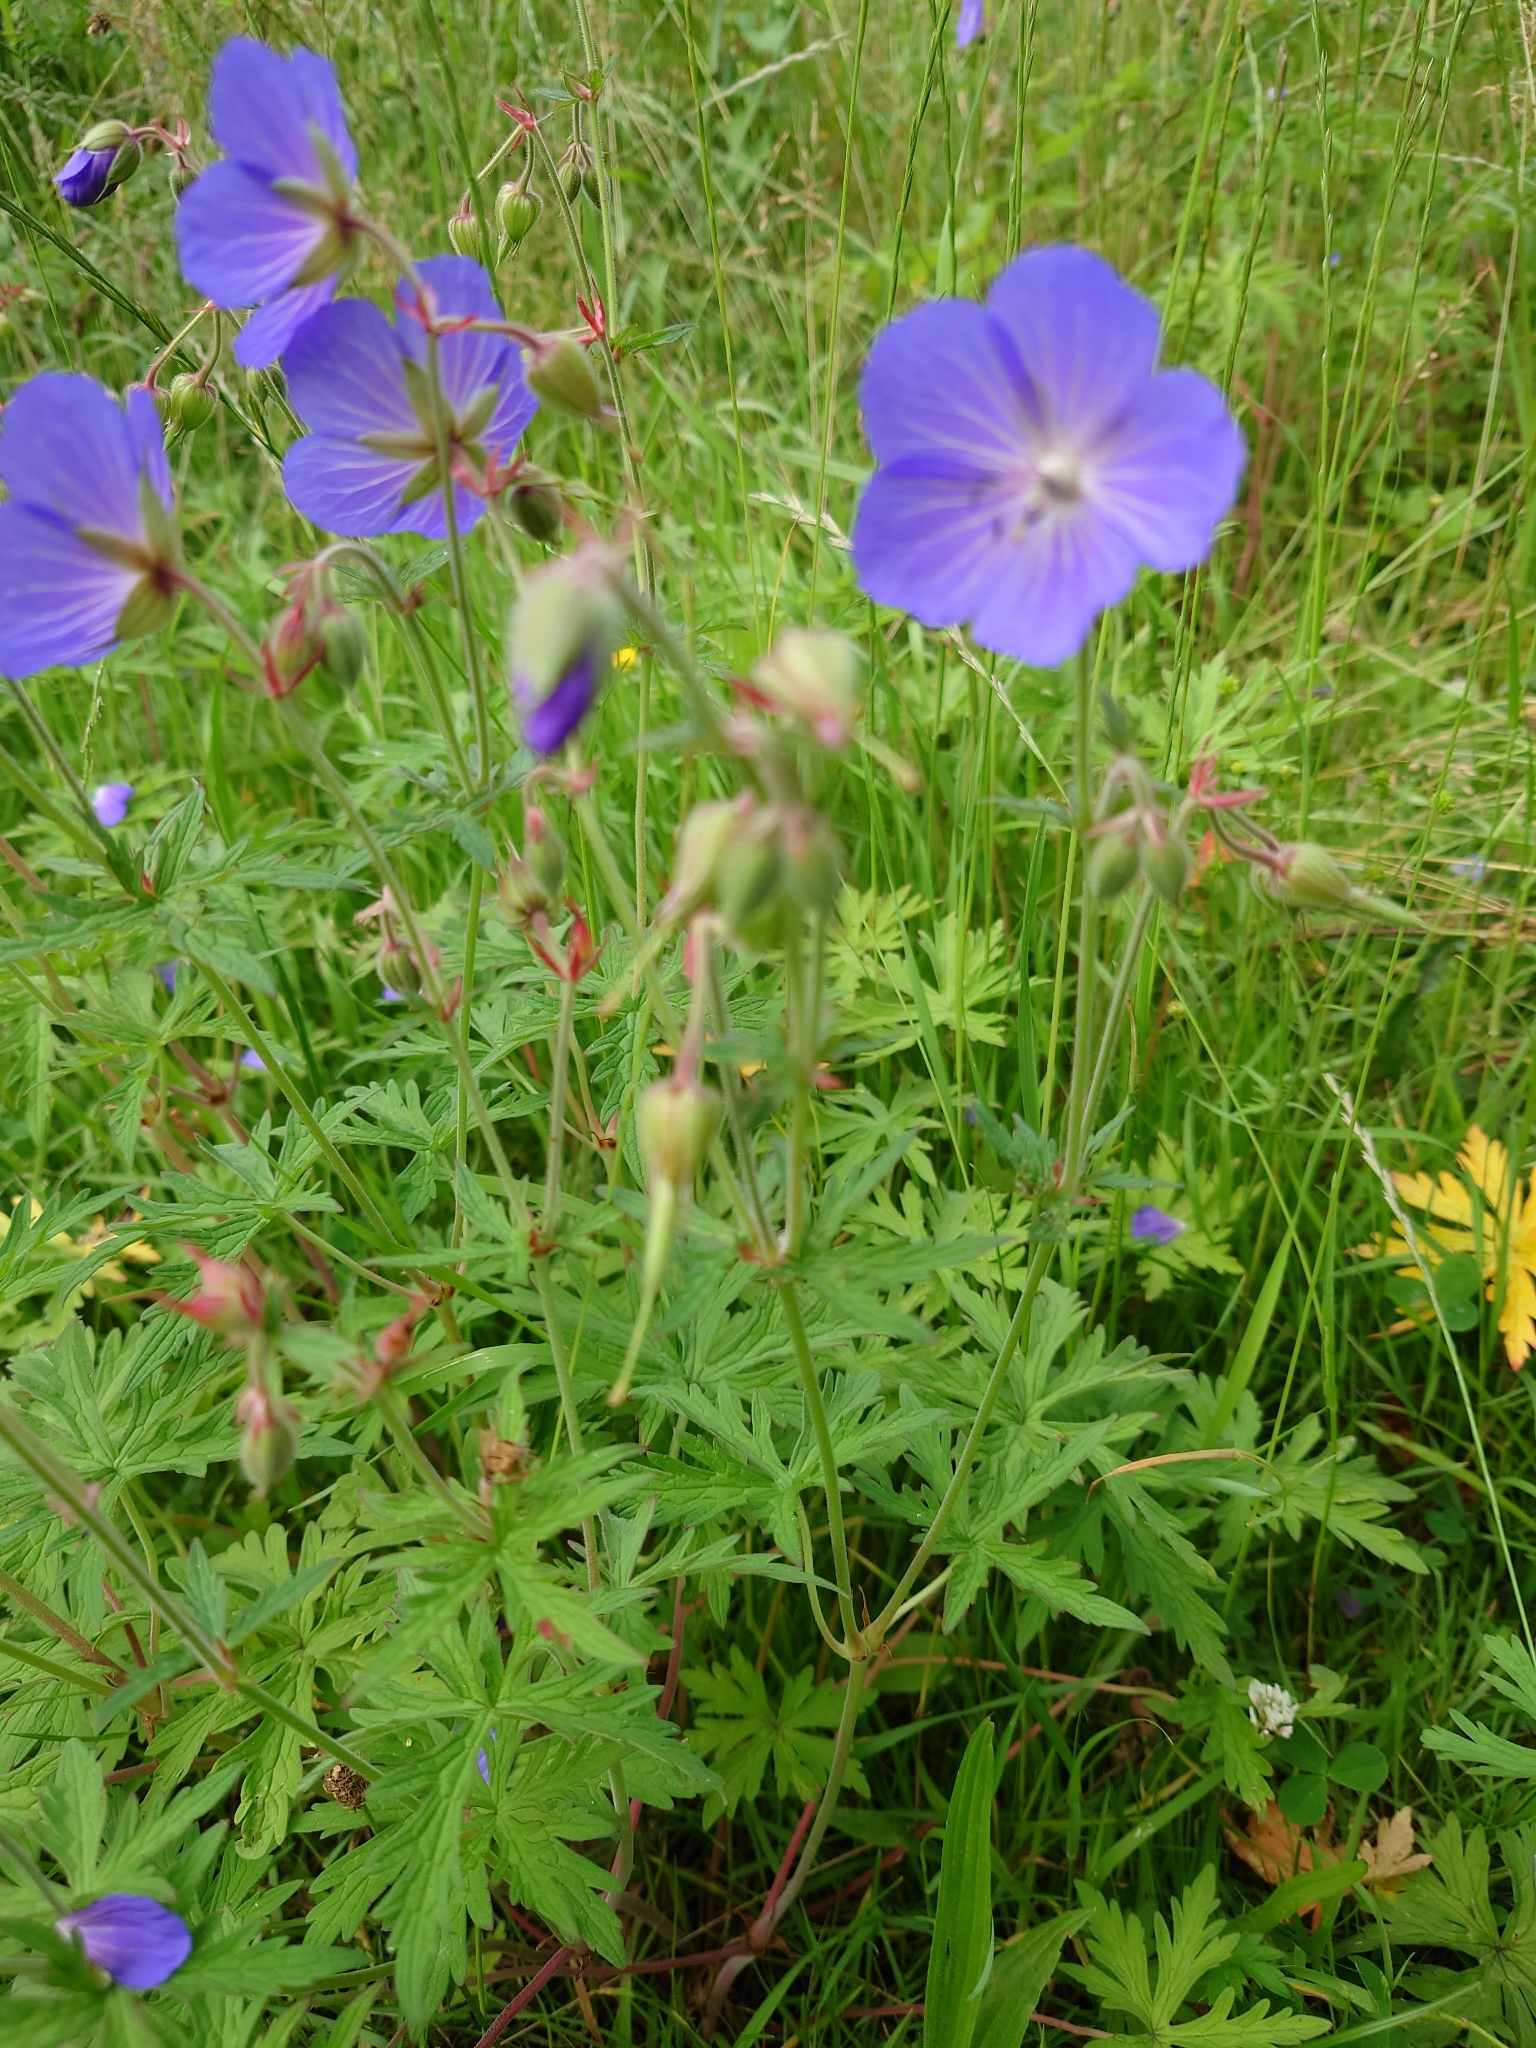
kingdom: Plantae
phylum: Tracheophyta
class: Magnoliopsida
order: Geraniales
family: Geraniaceae
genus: Geranium
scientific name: Geranium pratense
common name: Meadow crane's-bill
